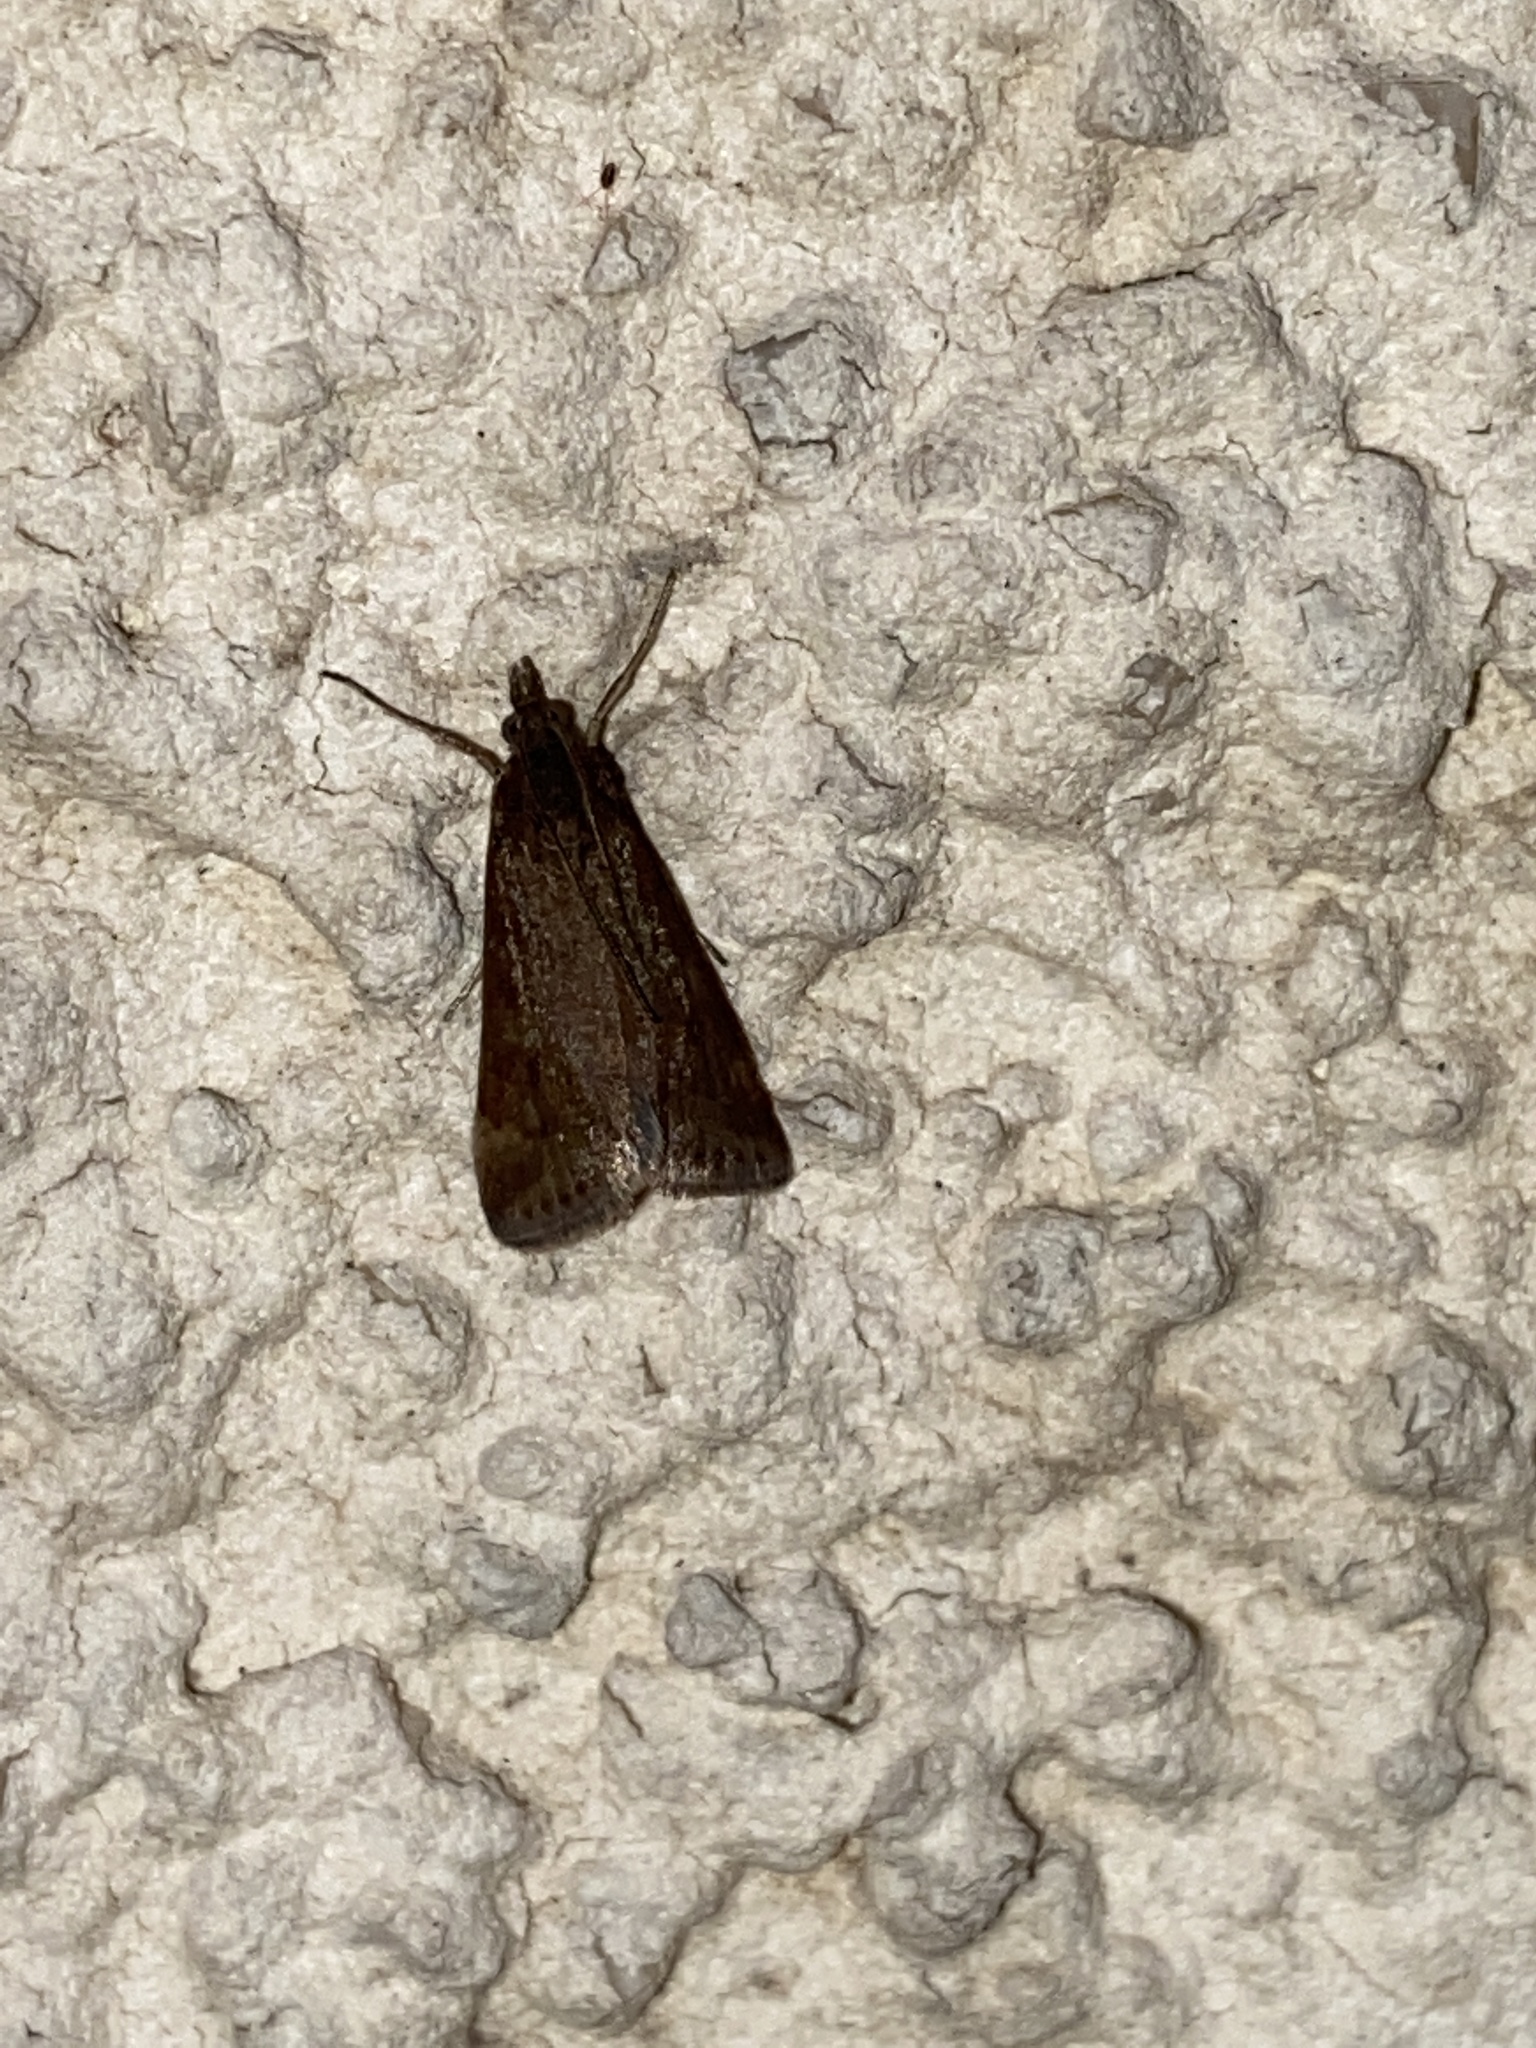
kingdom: Animalia
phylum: Arthropoda
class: Insecta
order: Lepidoptera
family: Crambidae
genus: Pyrausta
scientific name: Pyrausta despicata
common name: Straw-barred pearl
